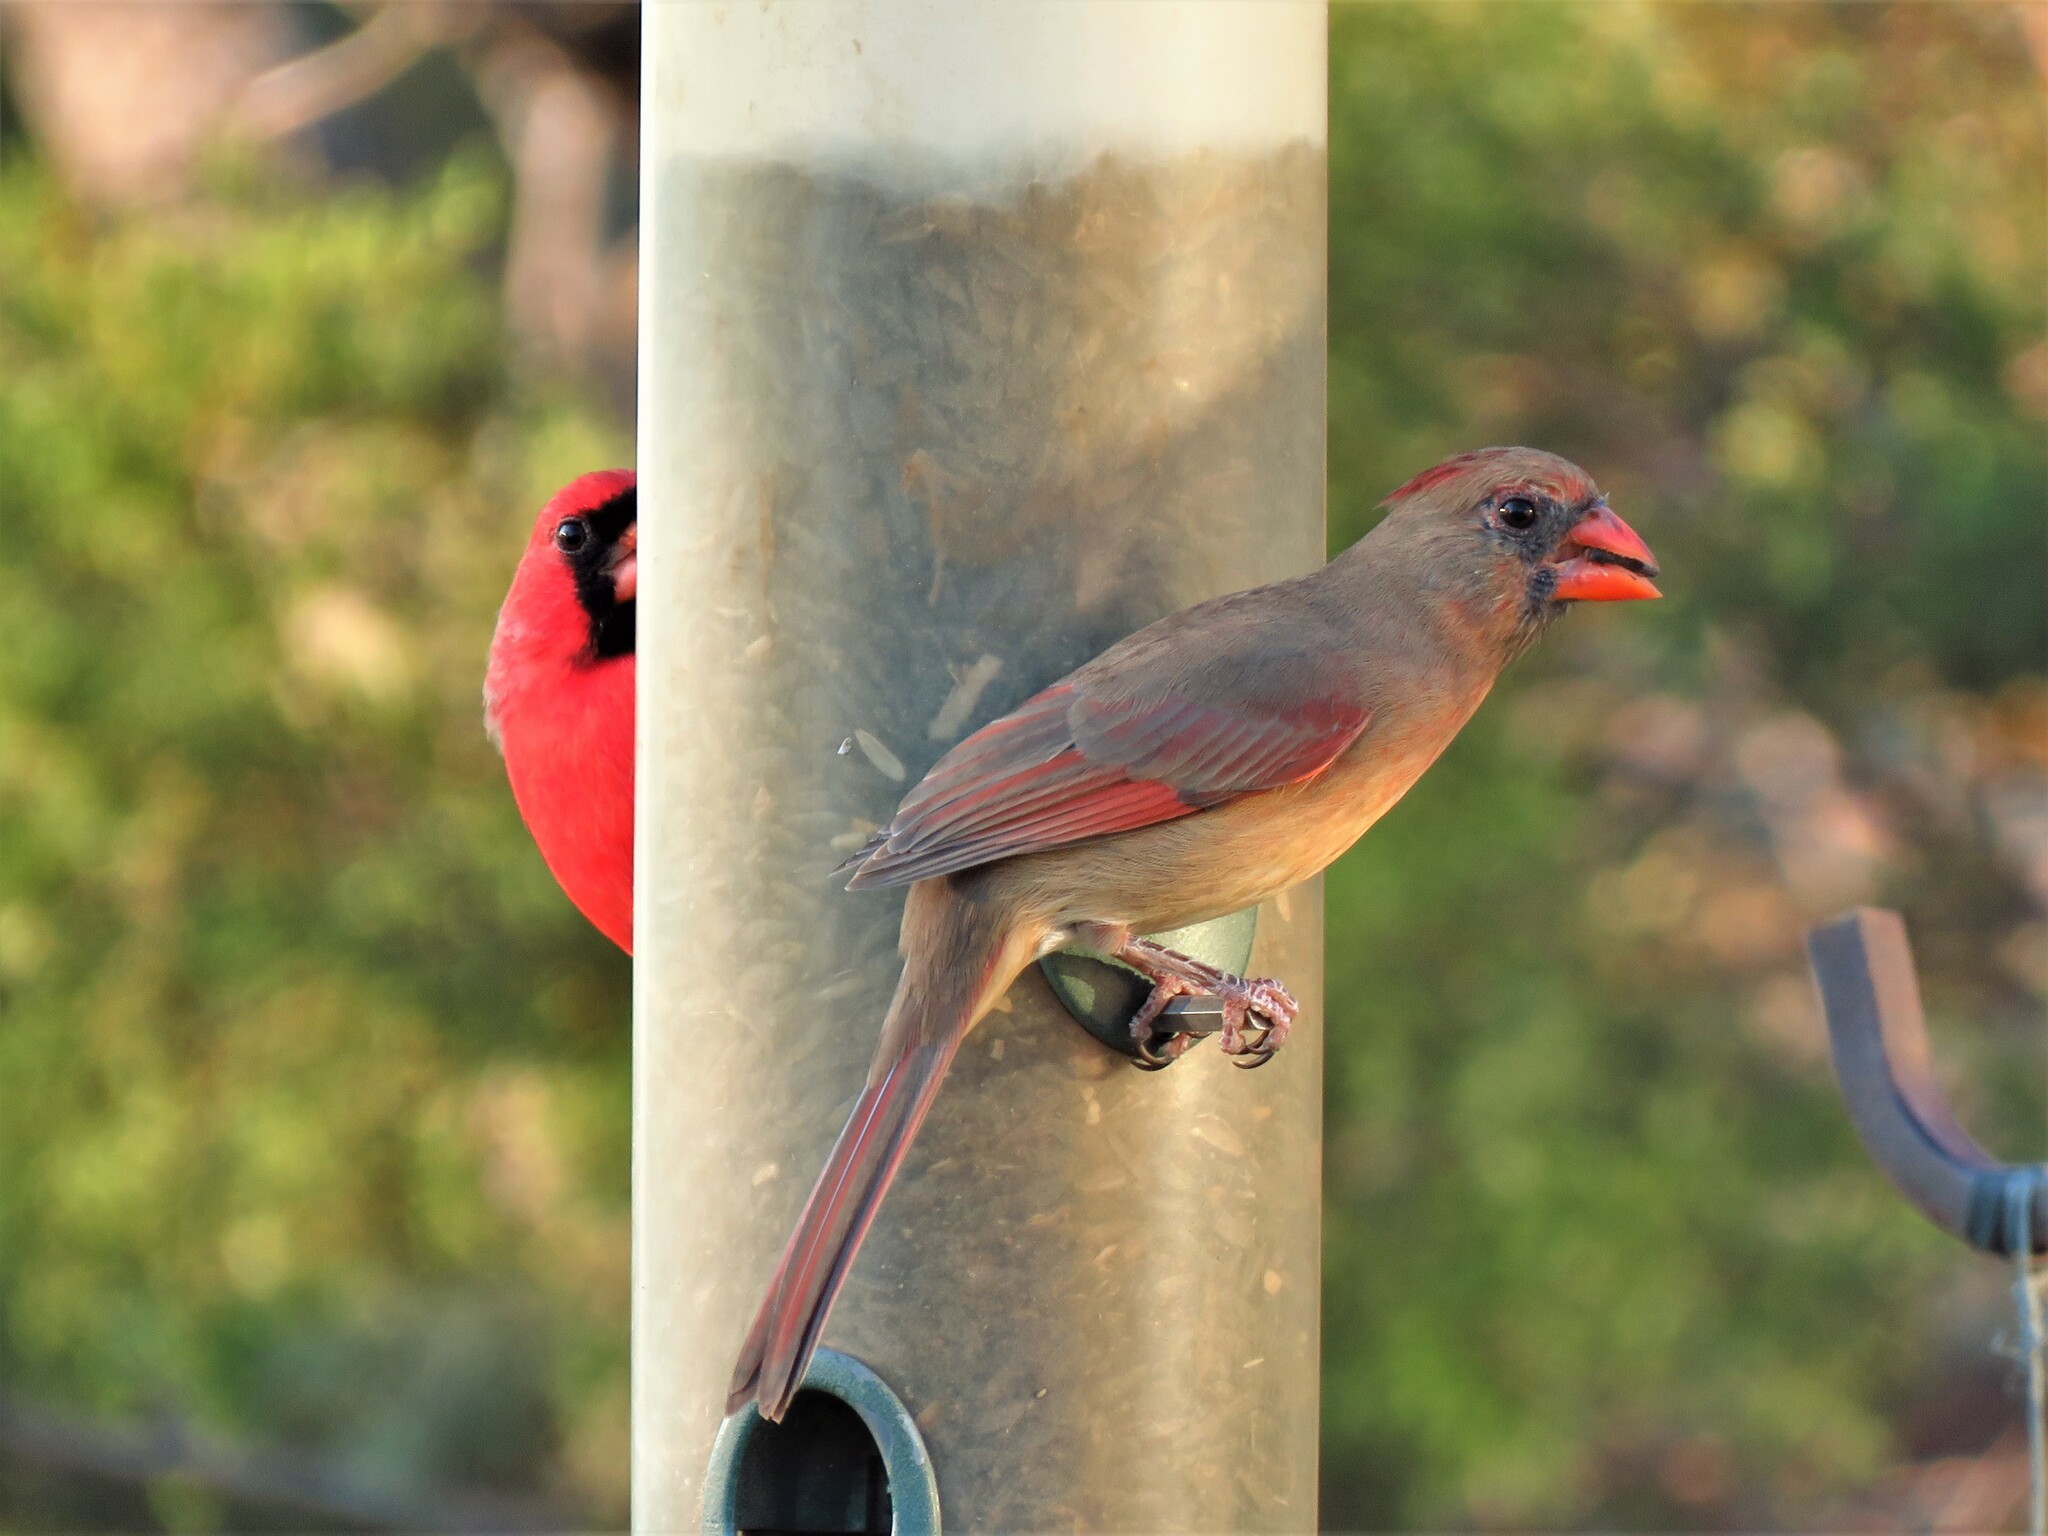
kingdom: Animalia
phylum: Chordata
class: Aves
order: Passeriformes
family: Cardinalidae
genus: Cardinalis
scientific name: Cardinalis cardinalis
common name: Northern cardinal
